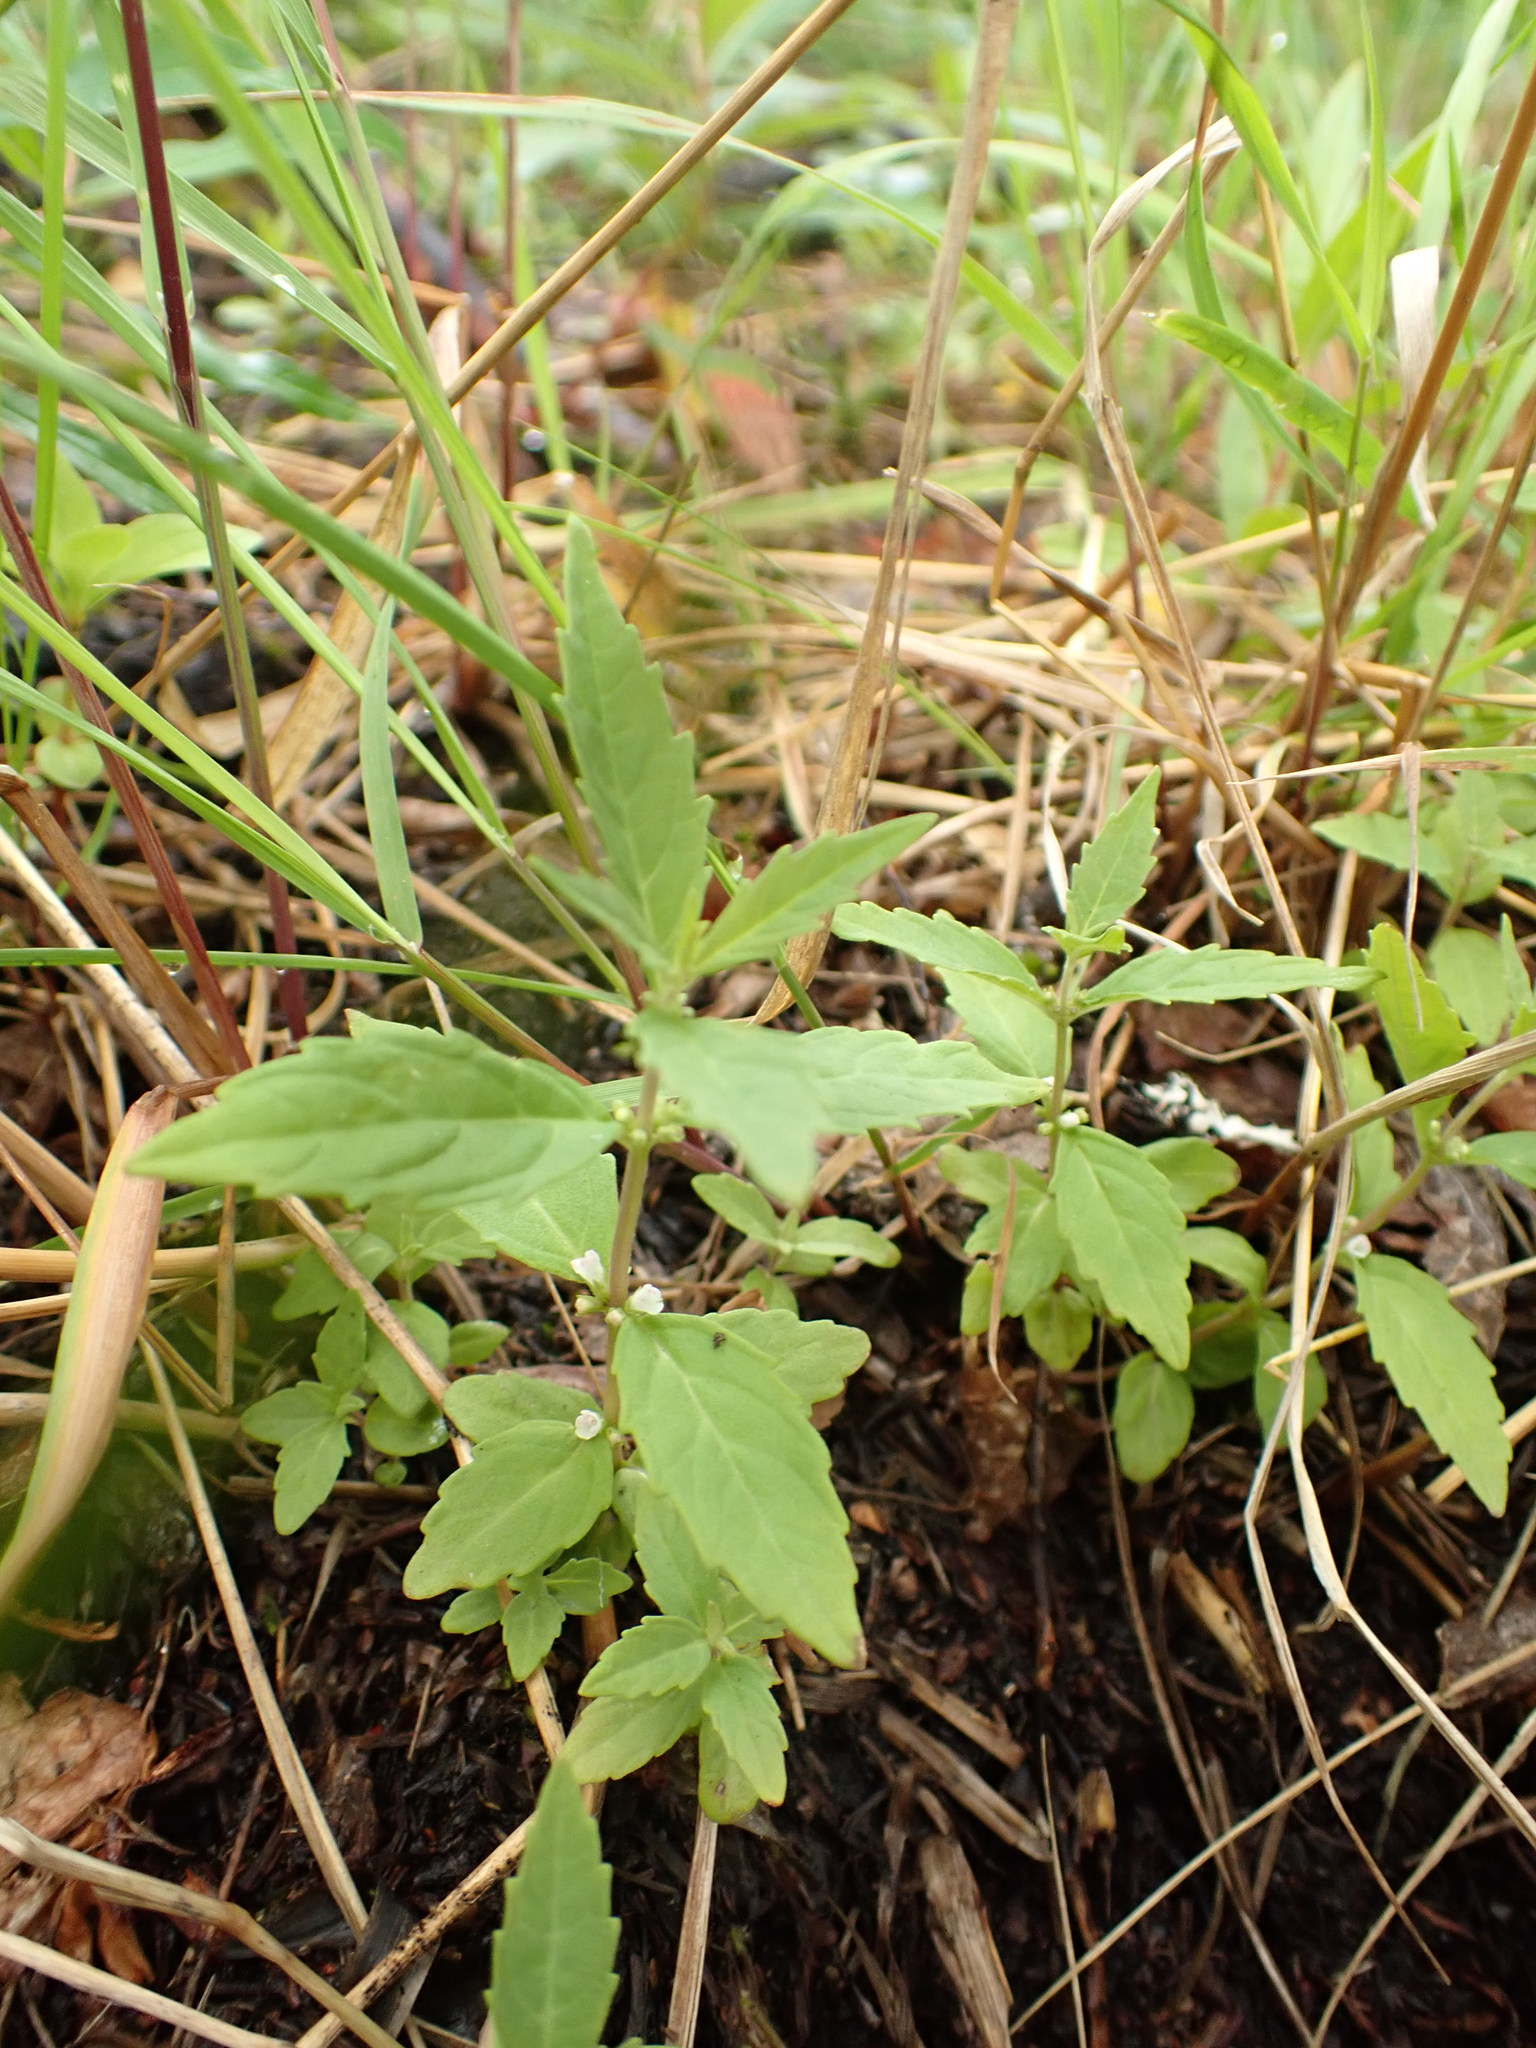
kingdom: Plantae
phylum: Tracheophyta
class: Magnoliopsida
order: Lamiales
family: Lamiaceae
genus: Lycopus
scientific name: Lycopus uniflorus
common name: Northern bugleweed
